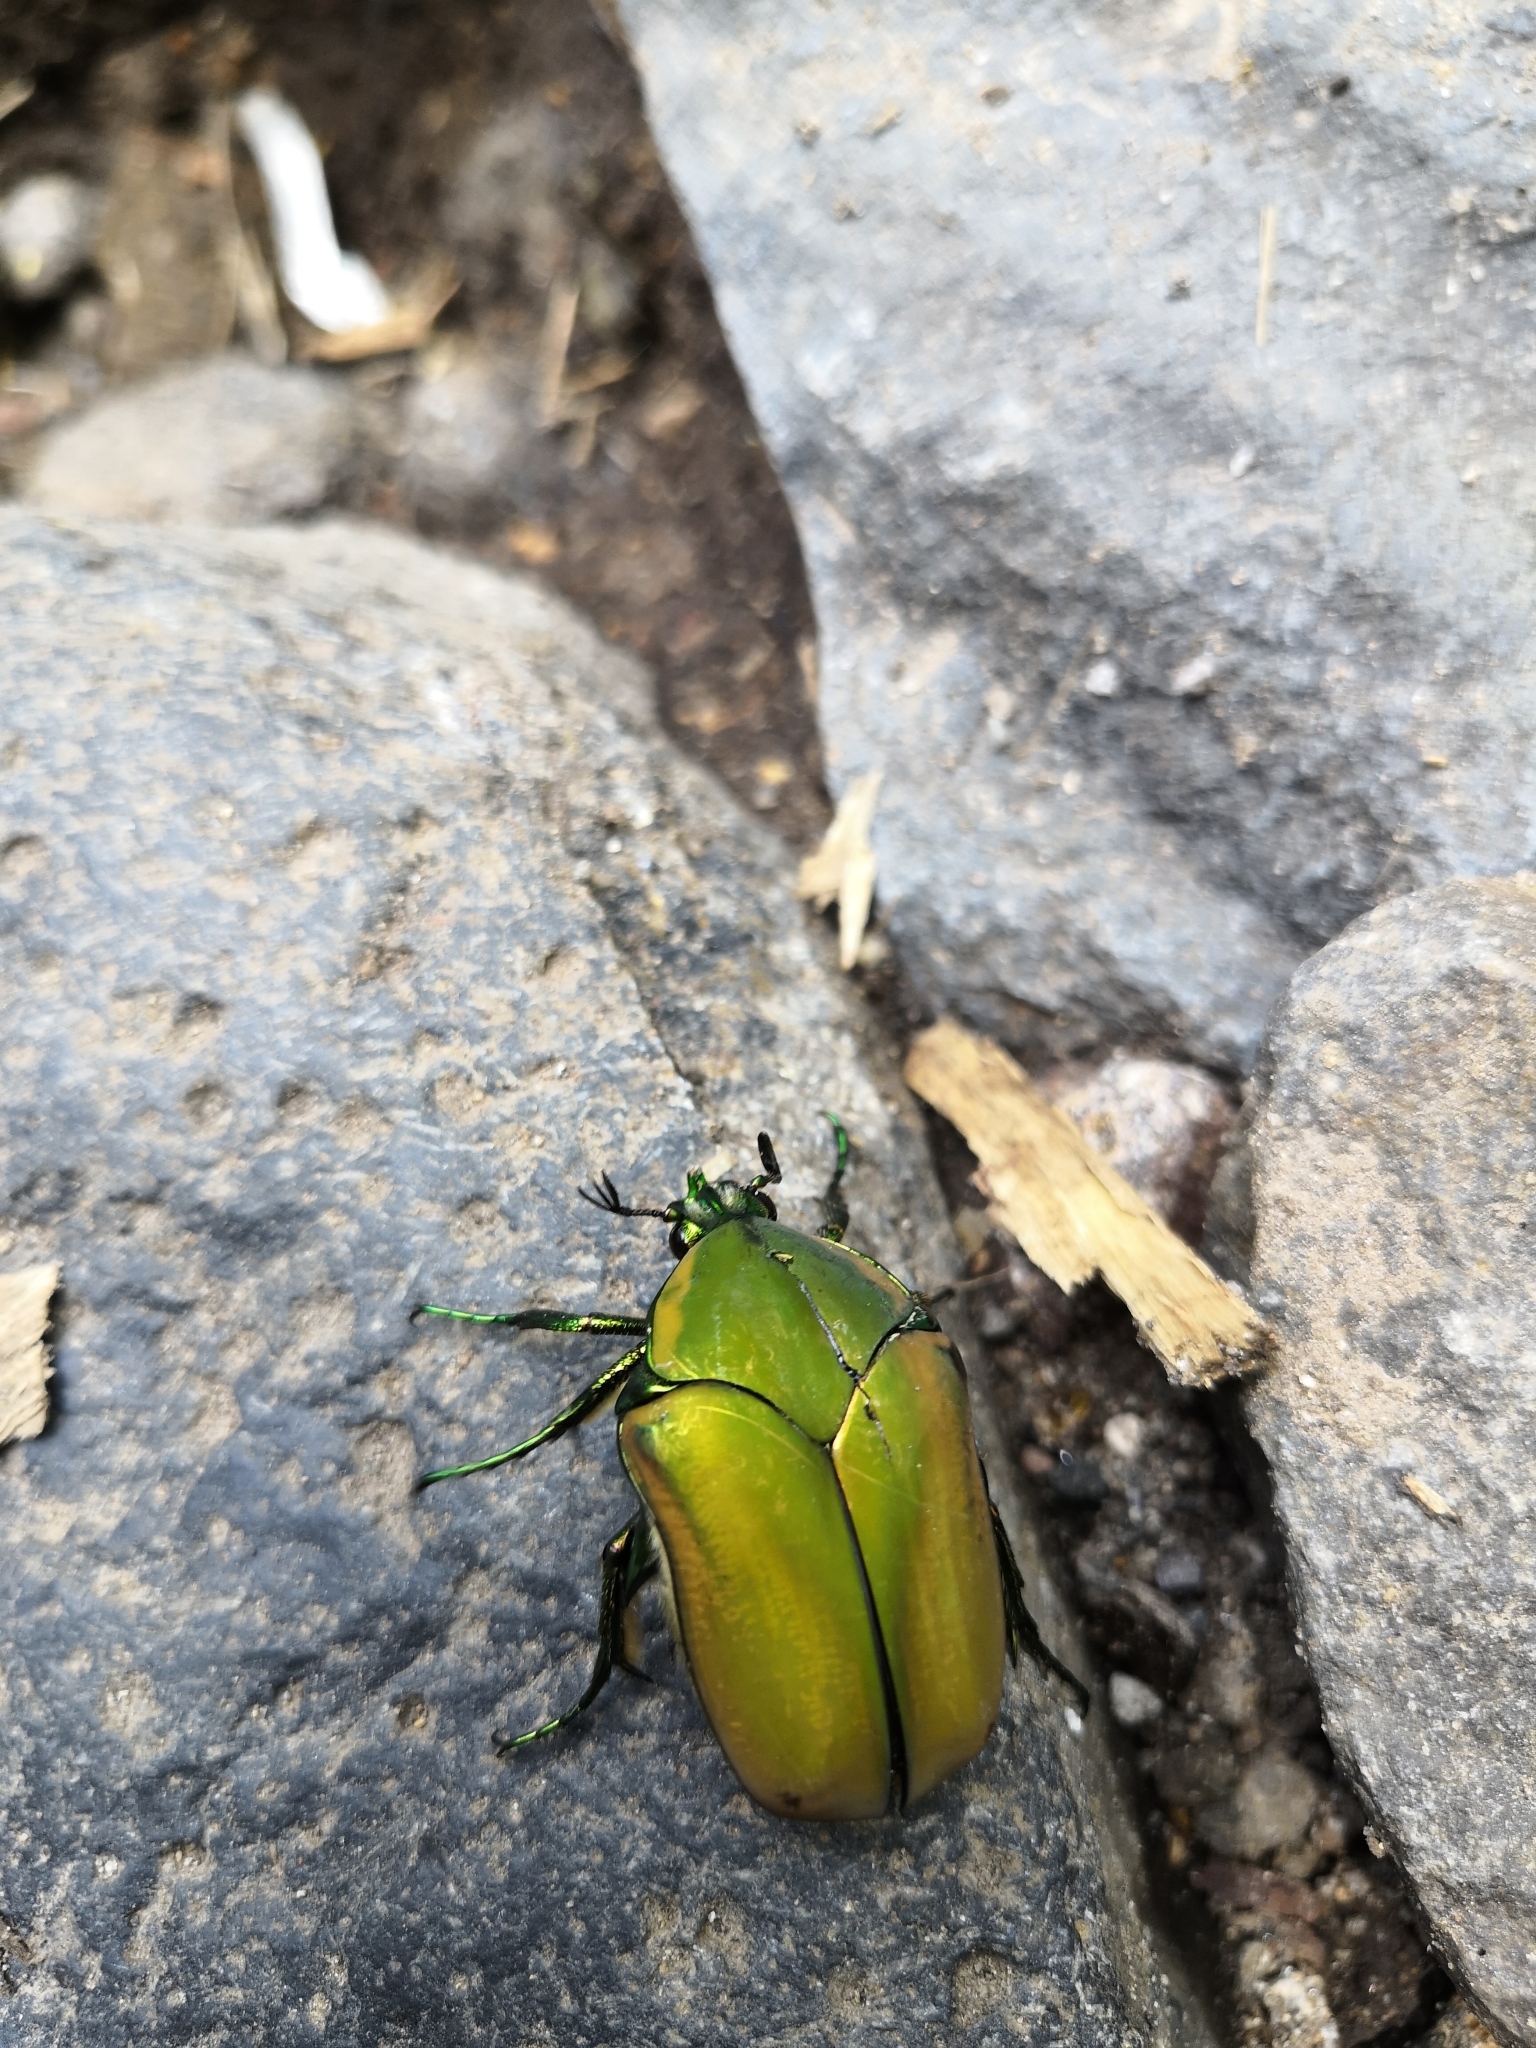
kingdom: Animalia
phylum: Arthropoda
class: Insecta
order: Coleoptera
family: Scarabaeidae
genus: Cotinis
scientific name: Cotinis mutabilis
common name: Figeater beetle
